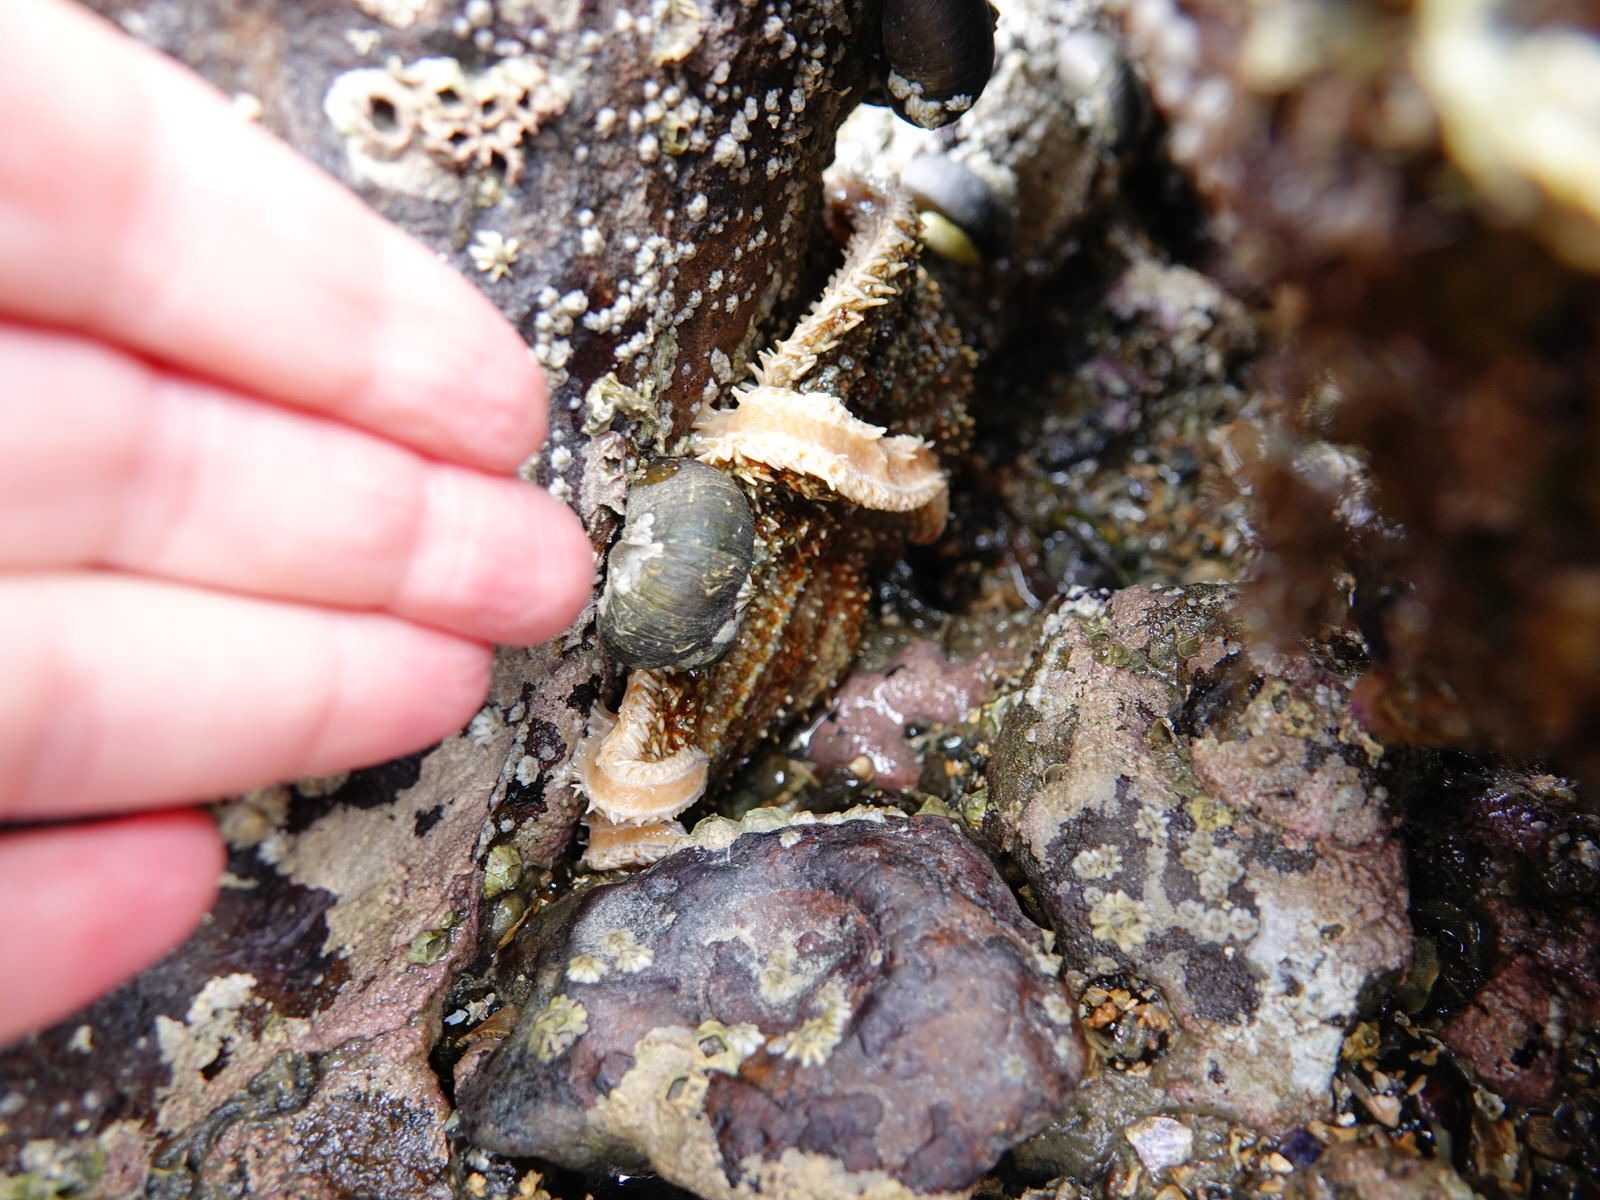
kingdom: Animalia
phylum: Echinodermata
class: Asteroidea
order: Forcipulatida
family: Asteriidae
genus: Coscinasterias
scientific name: Coscinasterias muricata
